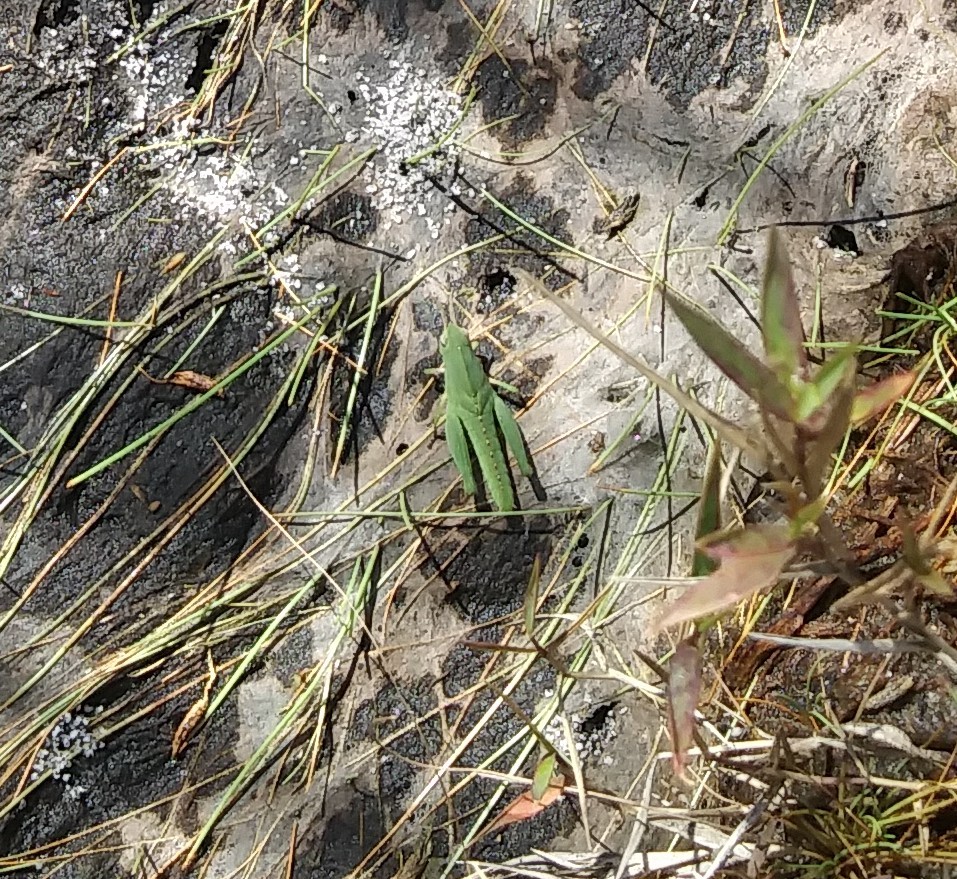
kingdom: Animalia
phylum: Arthropoda
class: Insecta
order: Orthoptera
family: Acrididae
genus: Chortophaga
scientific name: Chortophaga australior
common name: Southern green-striped grasshopper
